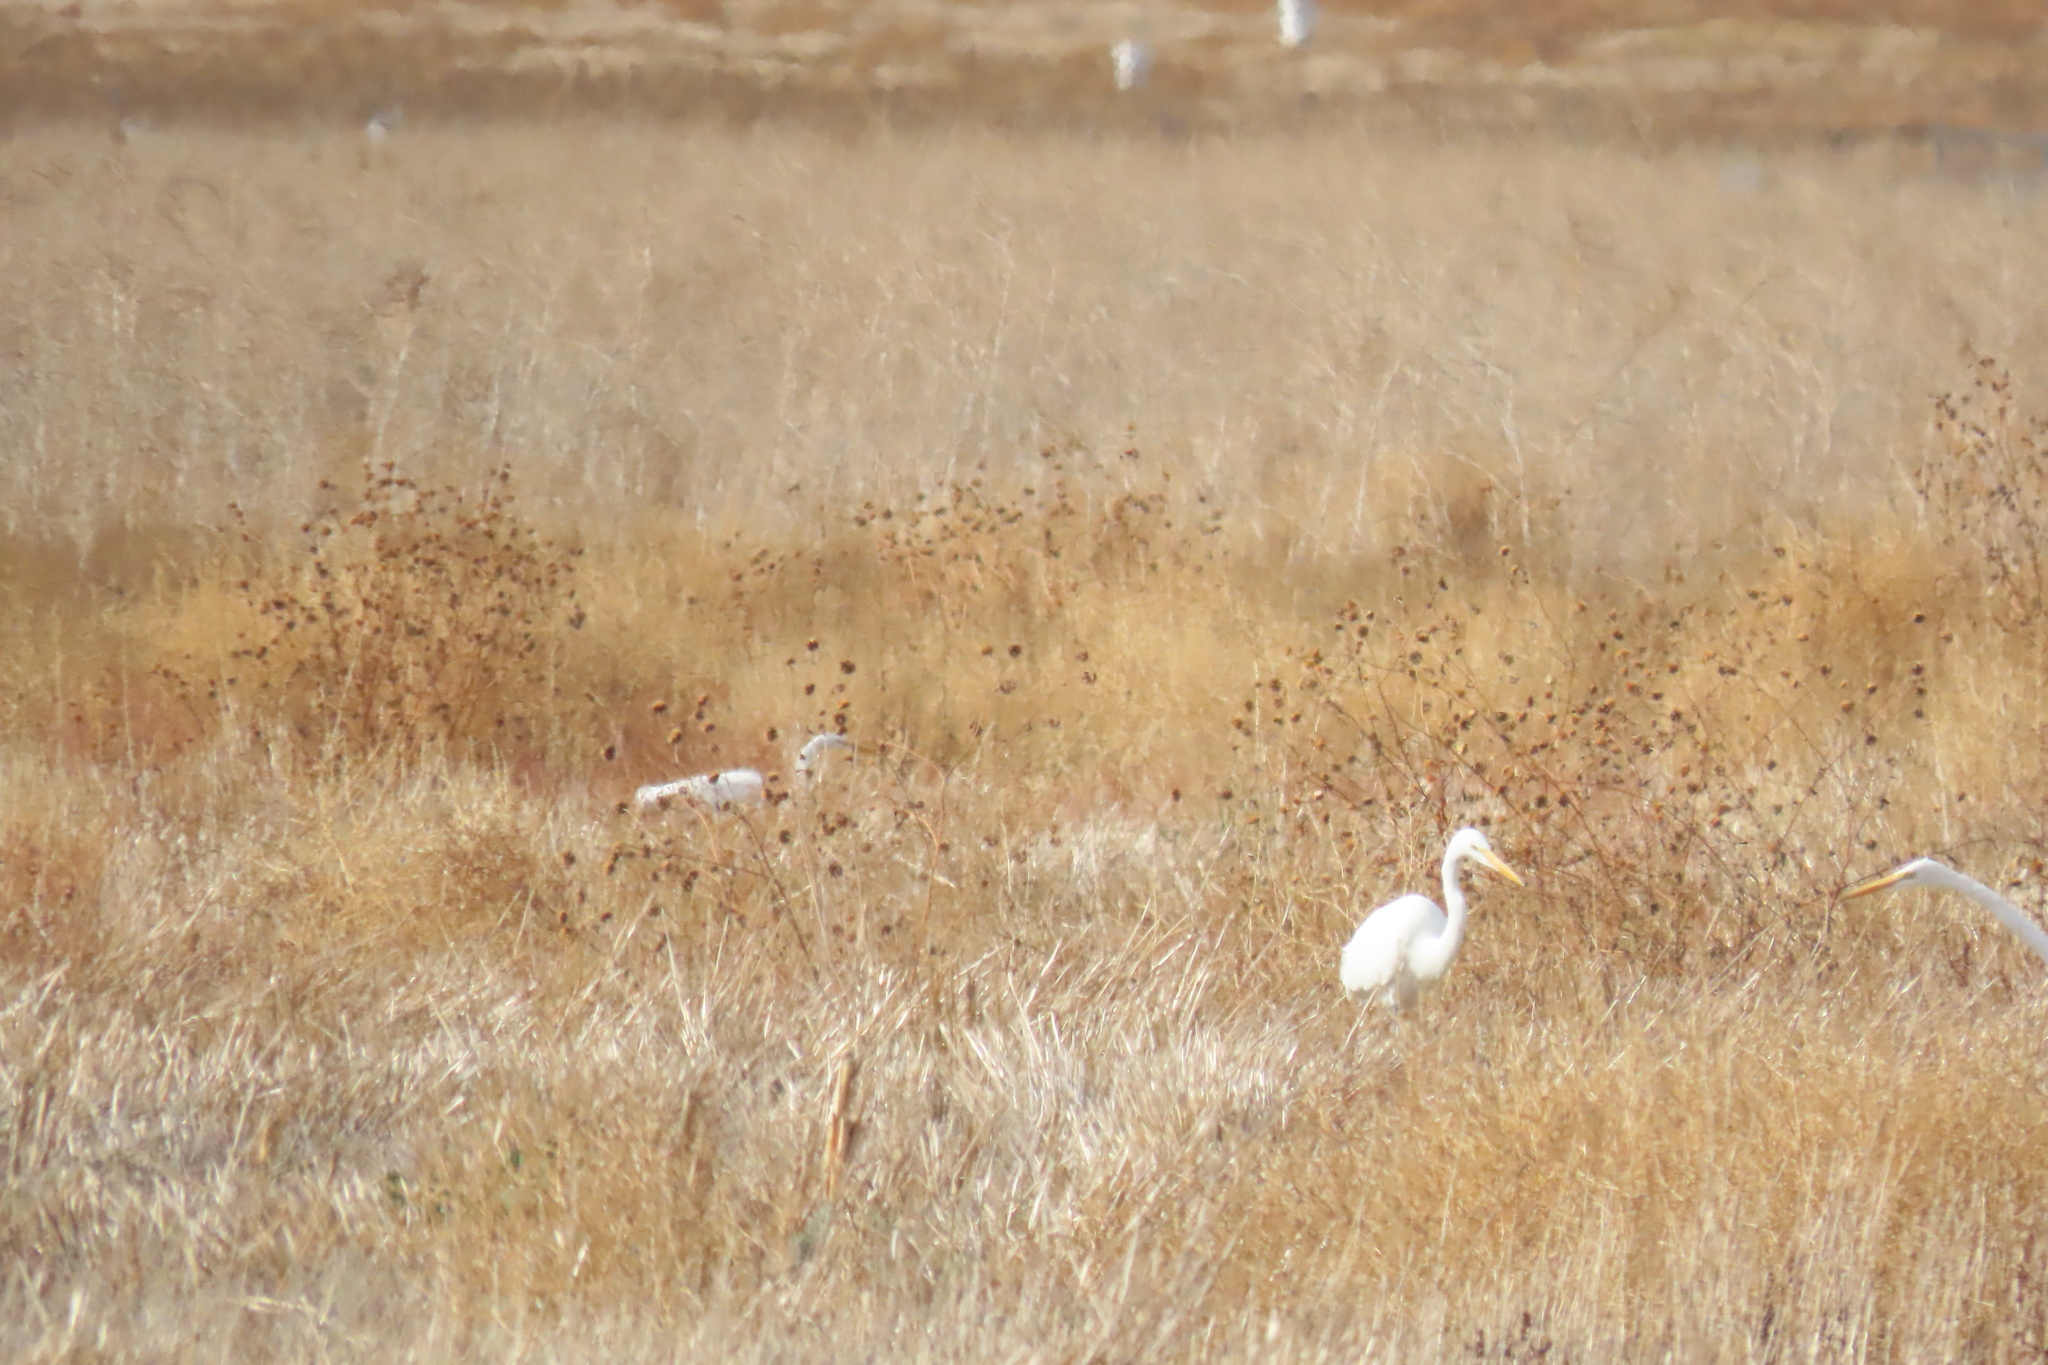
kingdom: Animalia
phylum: Chordata
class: Aves
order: Pelecaniformes
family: Ardeidae
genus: Ardea
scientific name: Ardea alba
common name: Great egret
